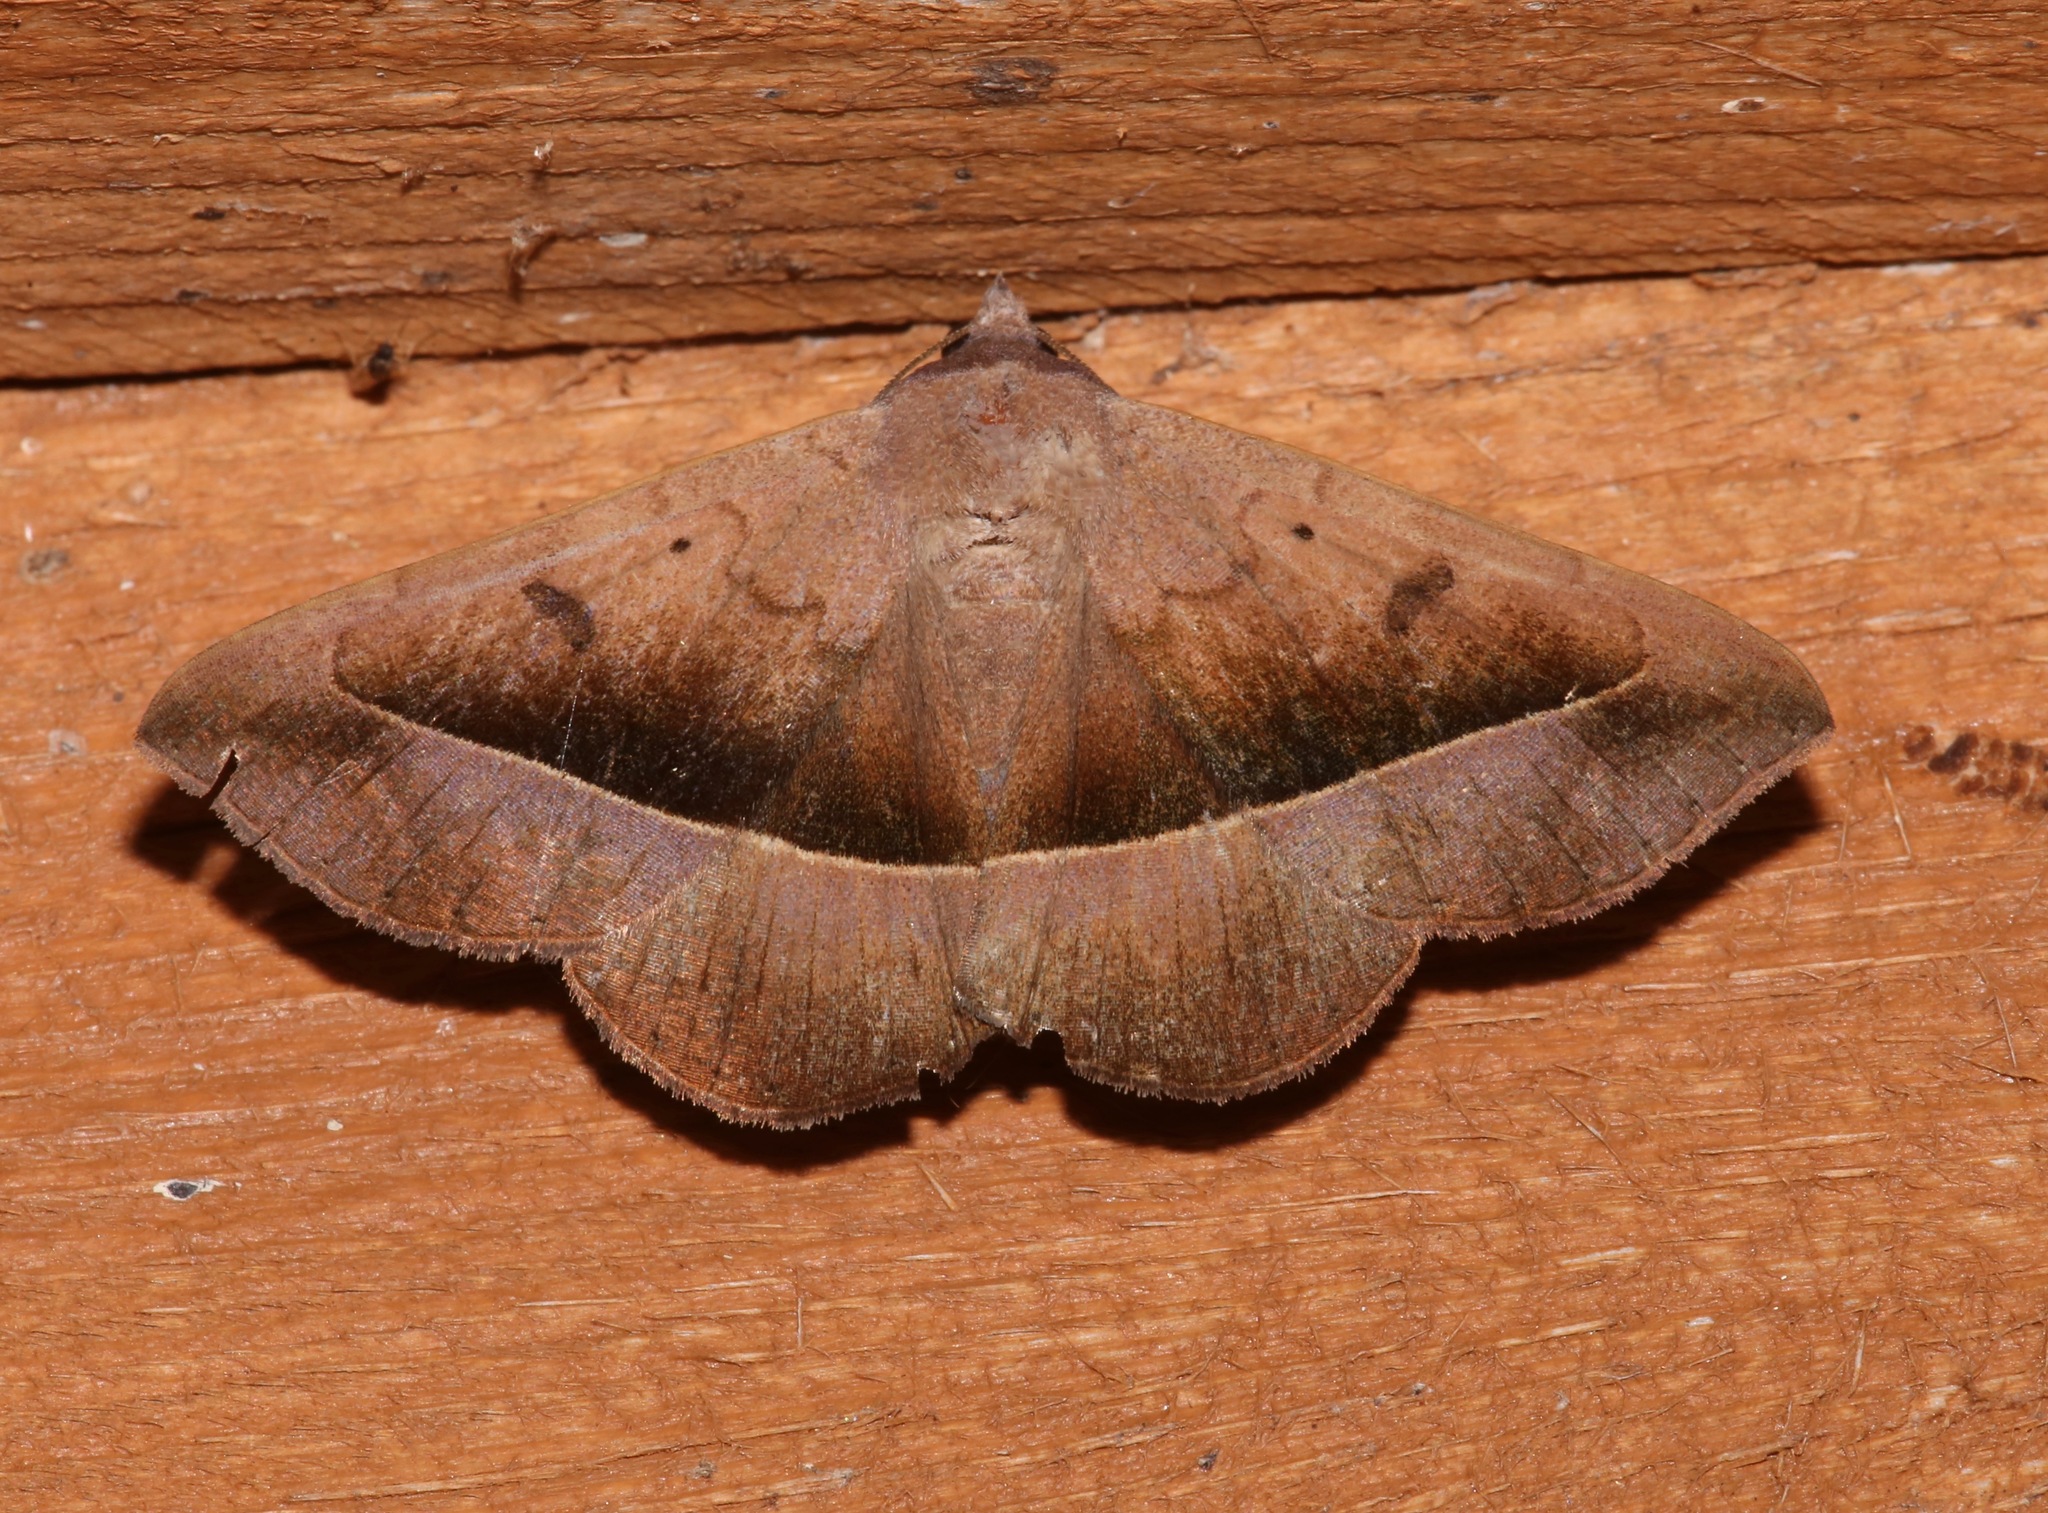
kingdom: Animalia
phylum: Arthropoda
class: Insecta
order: Lepidoptera
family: Erebidae
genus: Epidromia
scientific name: Epidromia rotundata
